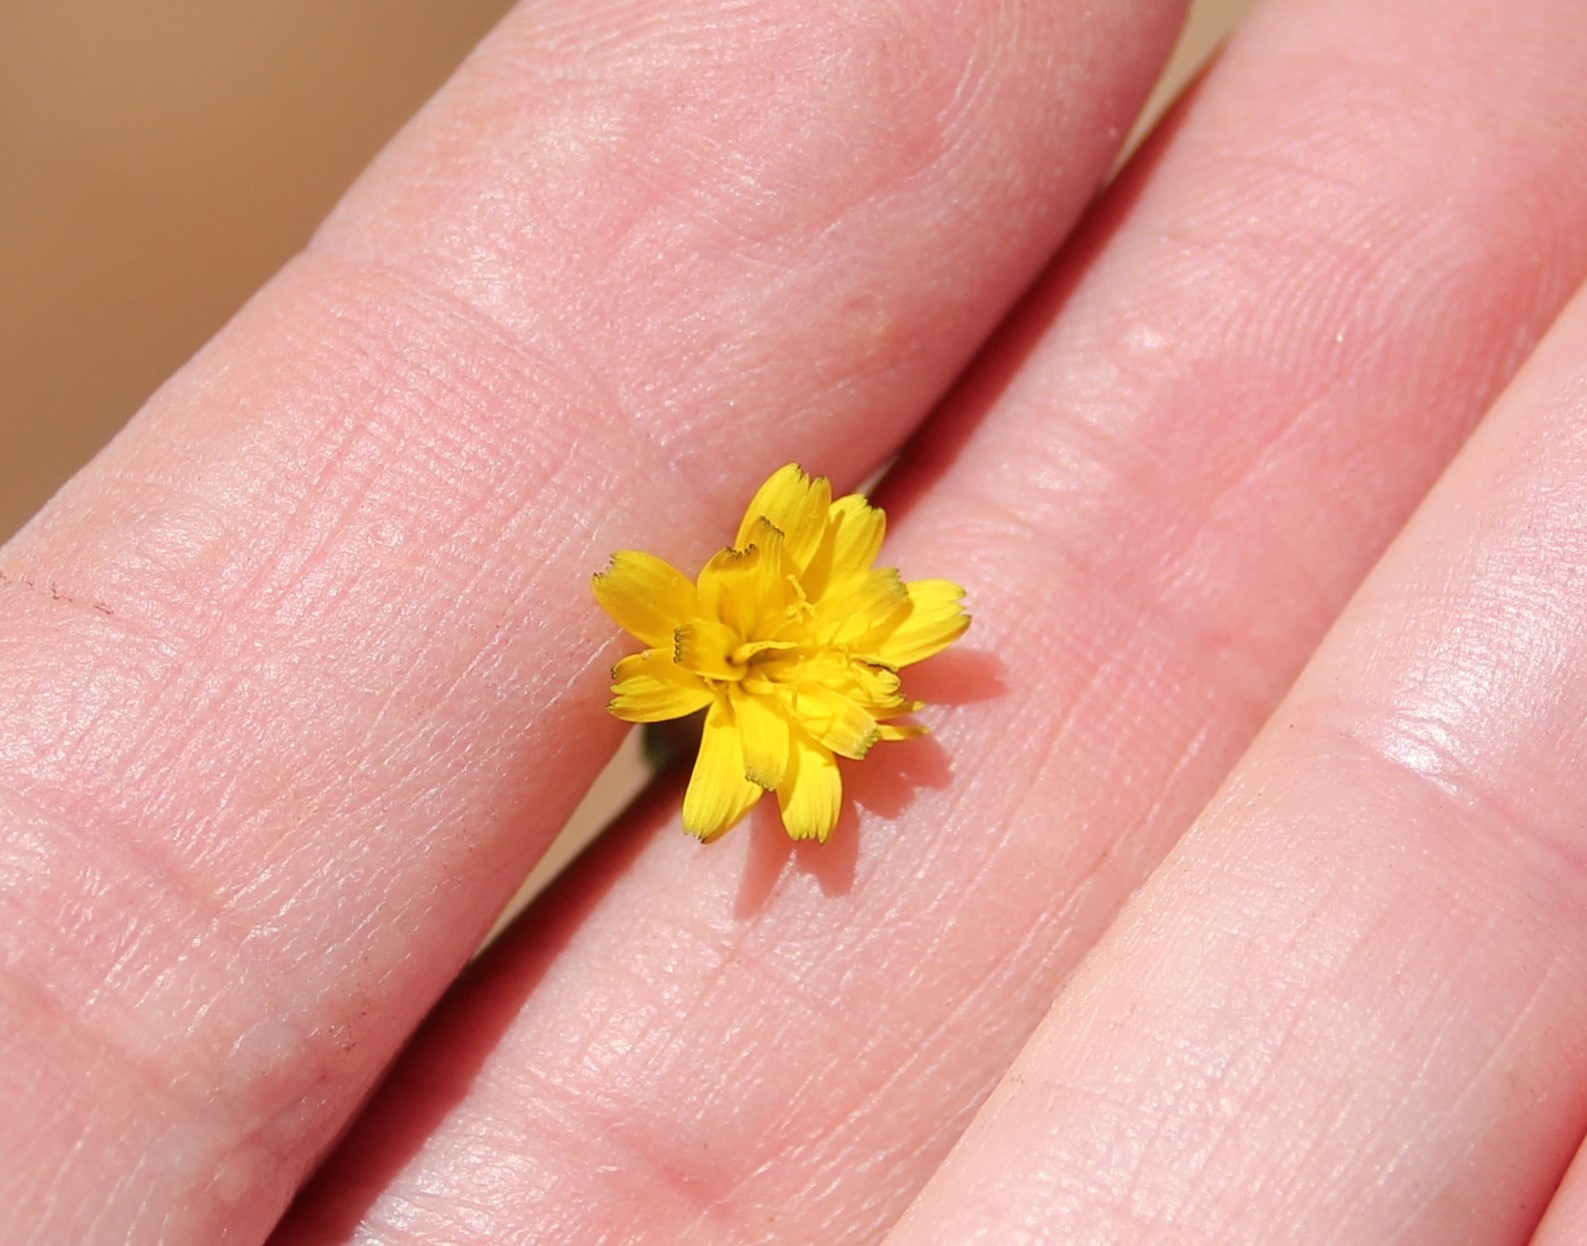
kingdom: Plantae
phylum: Tracheophyta
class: Magnoliopsida
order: Asterales
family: Asteraceae
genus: Hedypnois
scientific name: Hedypnois rhagadioloides
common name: Cretan weed
